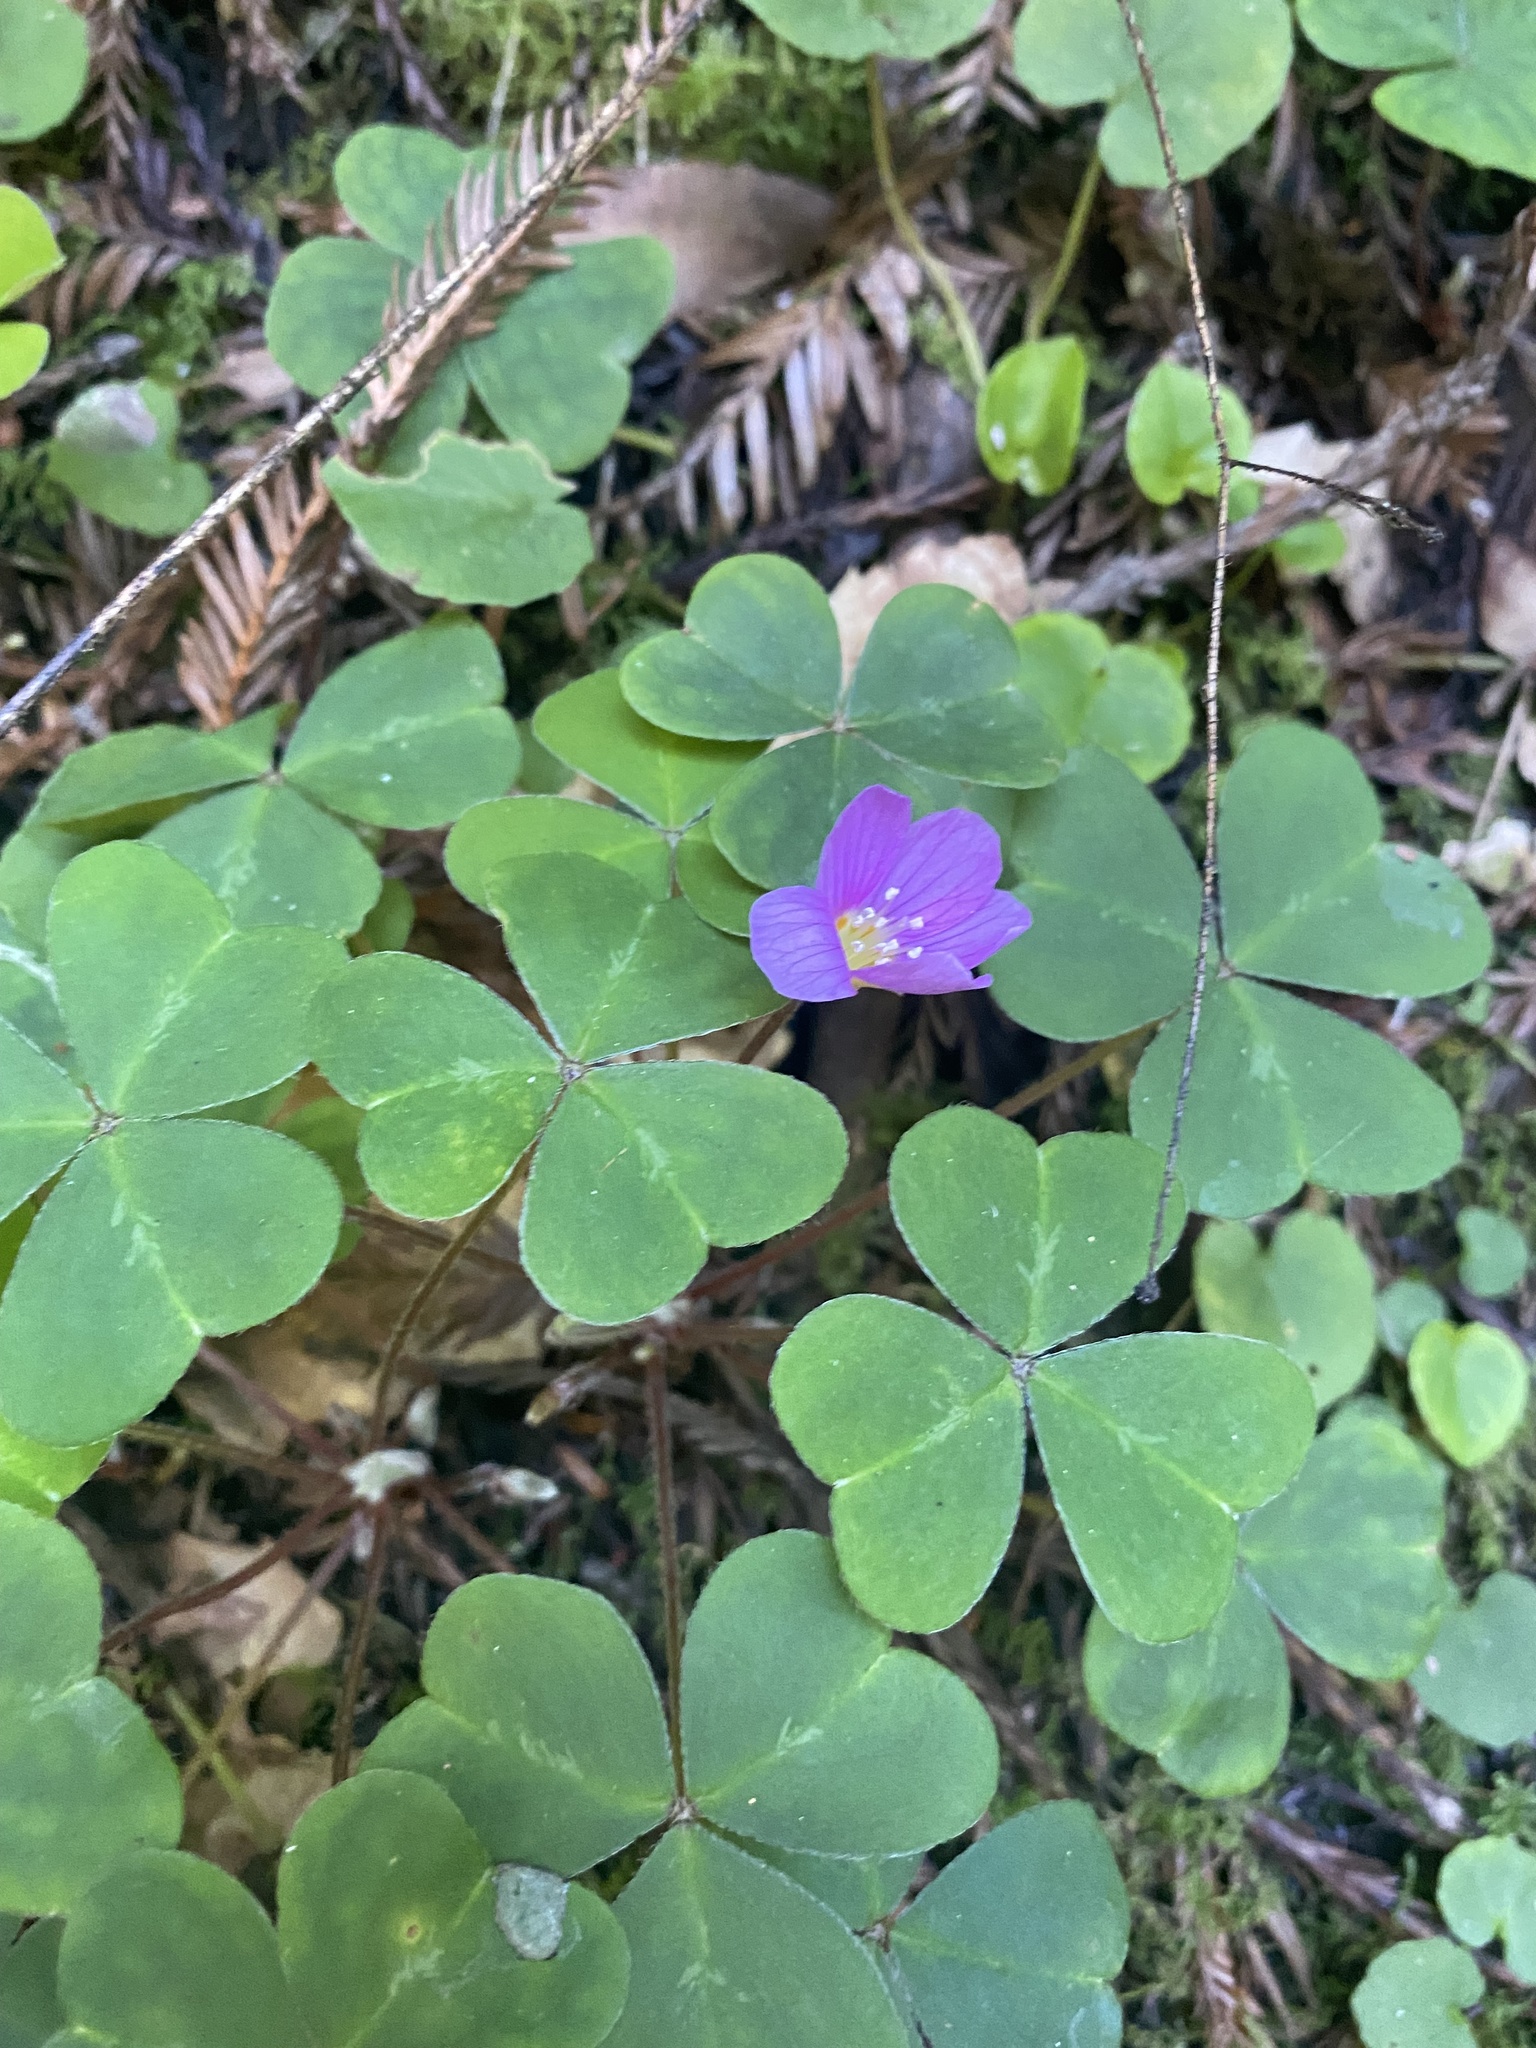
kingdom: Plantae
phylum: Tracheophyta
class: Magnoliopsida
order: Oxalidales
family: Oxalidaceae
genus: Oxalis
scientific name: Oxalis oregana
